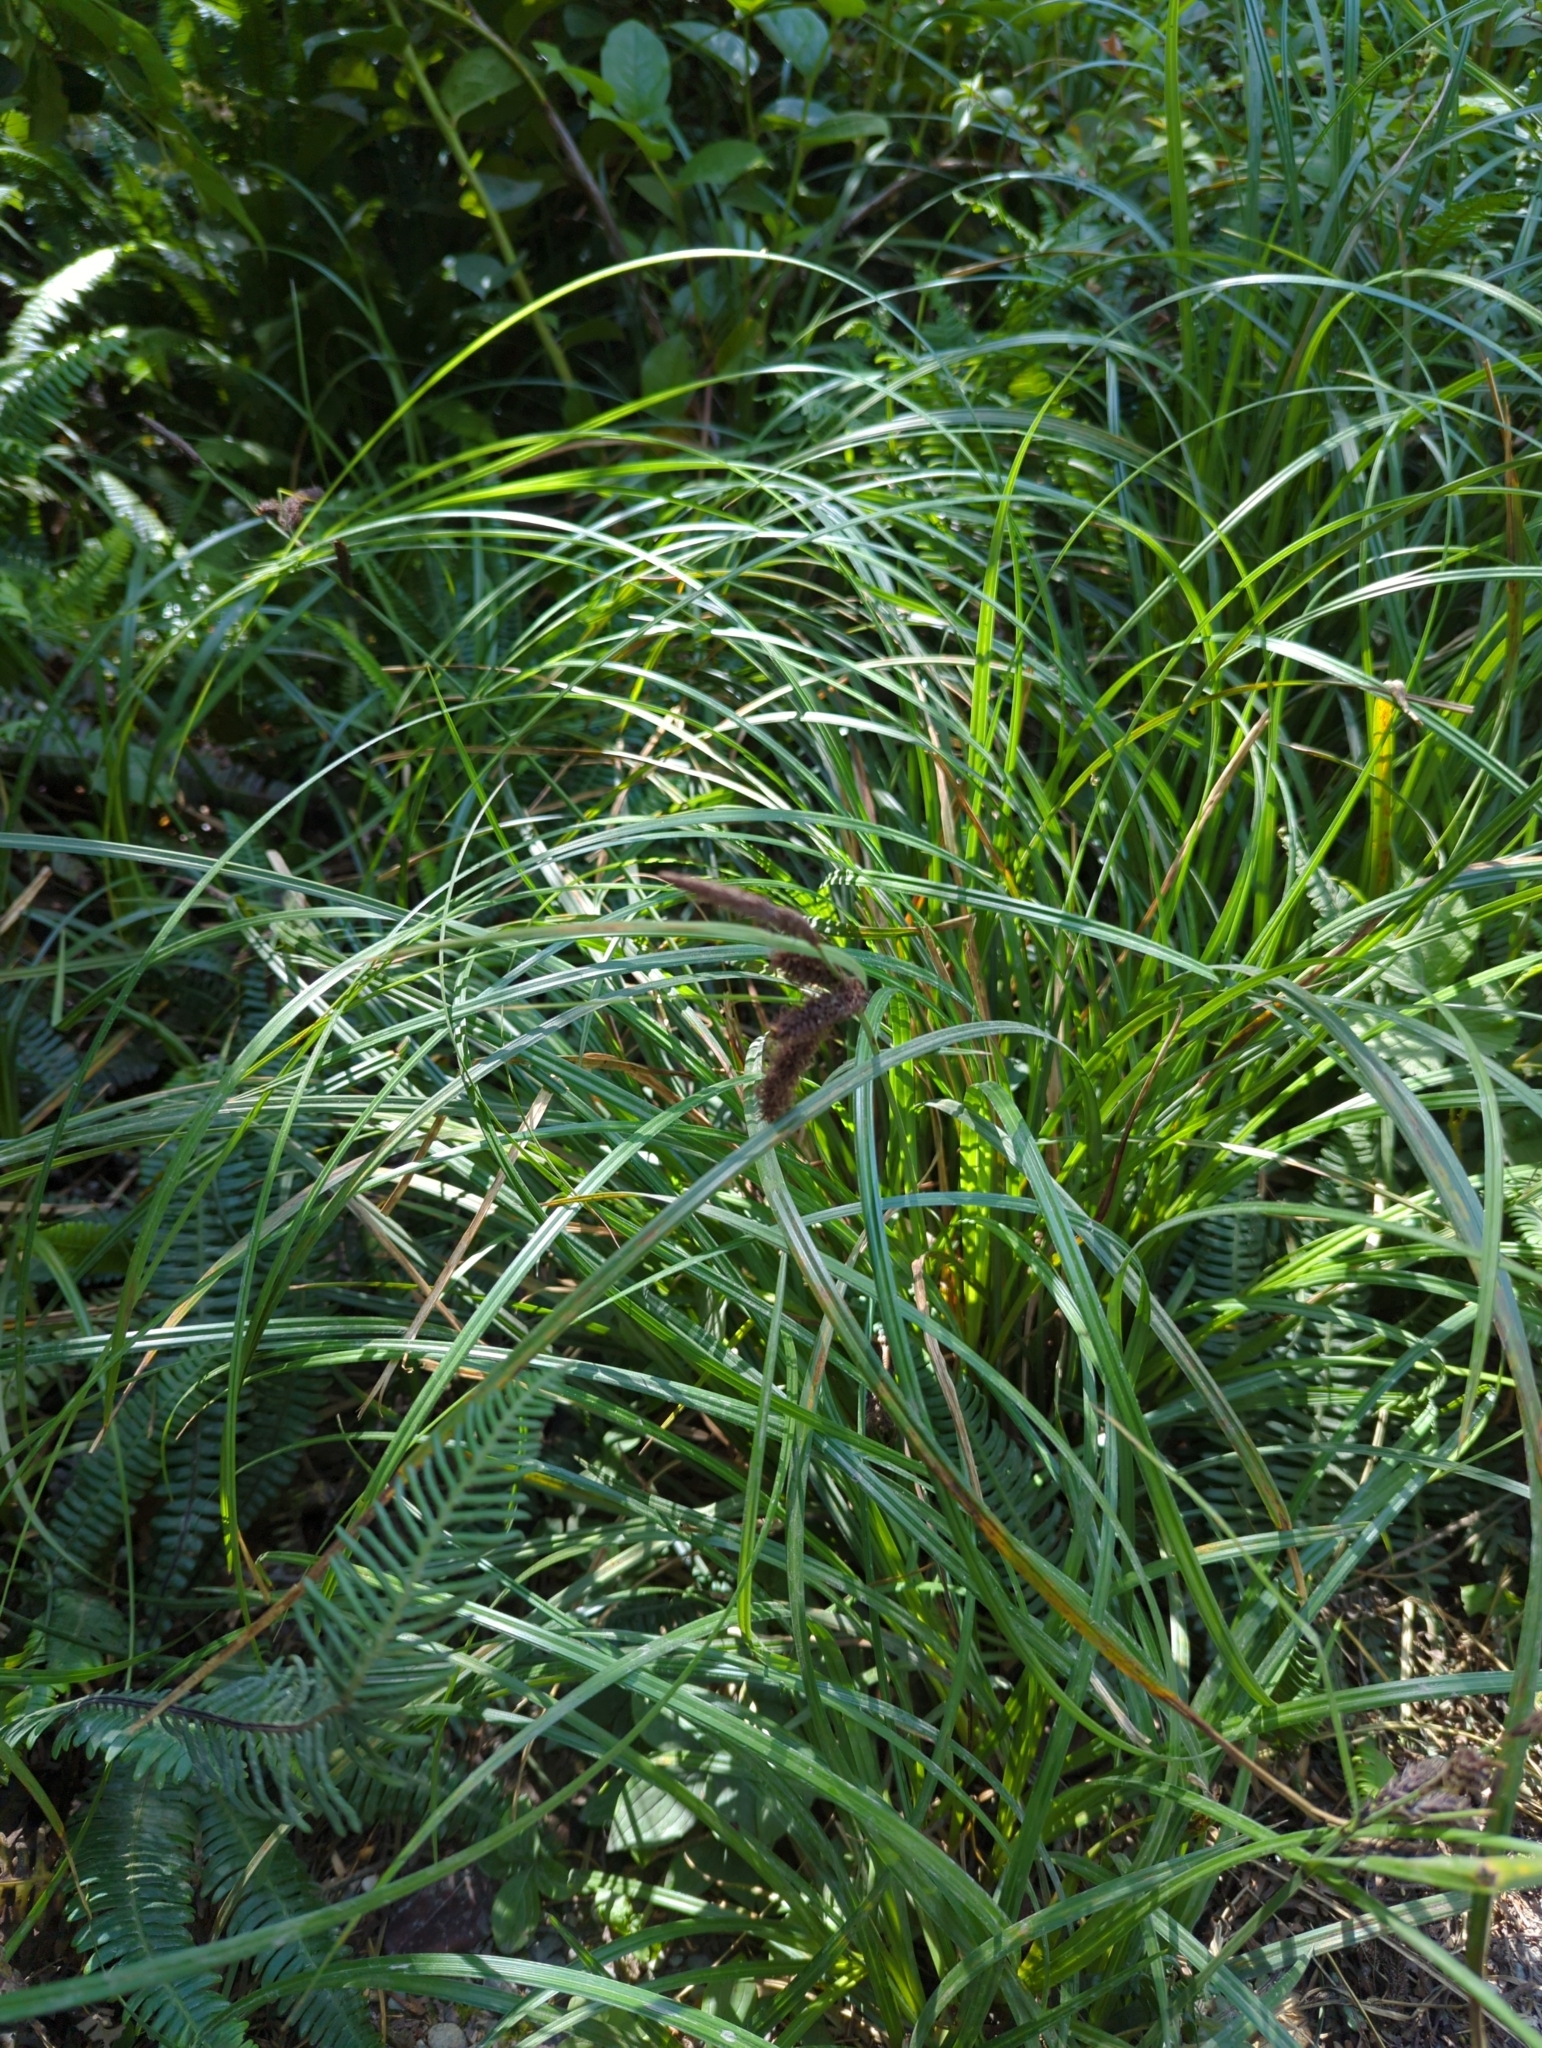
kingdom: Plantae
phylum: Tracheophyta
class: Liliopsida
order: Poales
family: Cyperaceae
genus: Carex
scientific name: Carex obnupta
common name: Slough sedge
